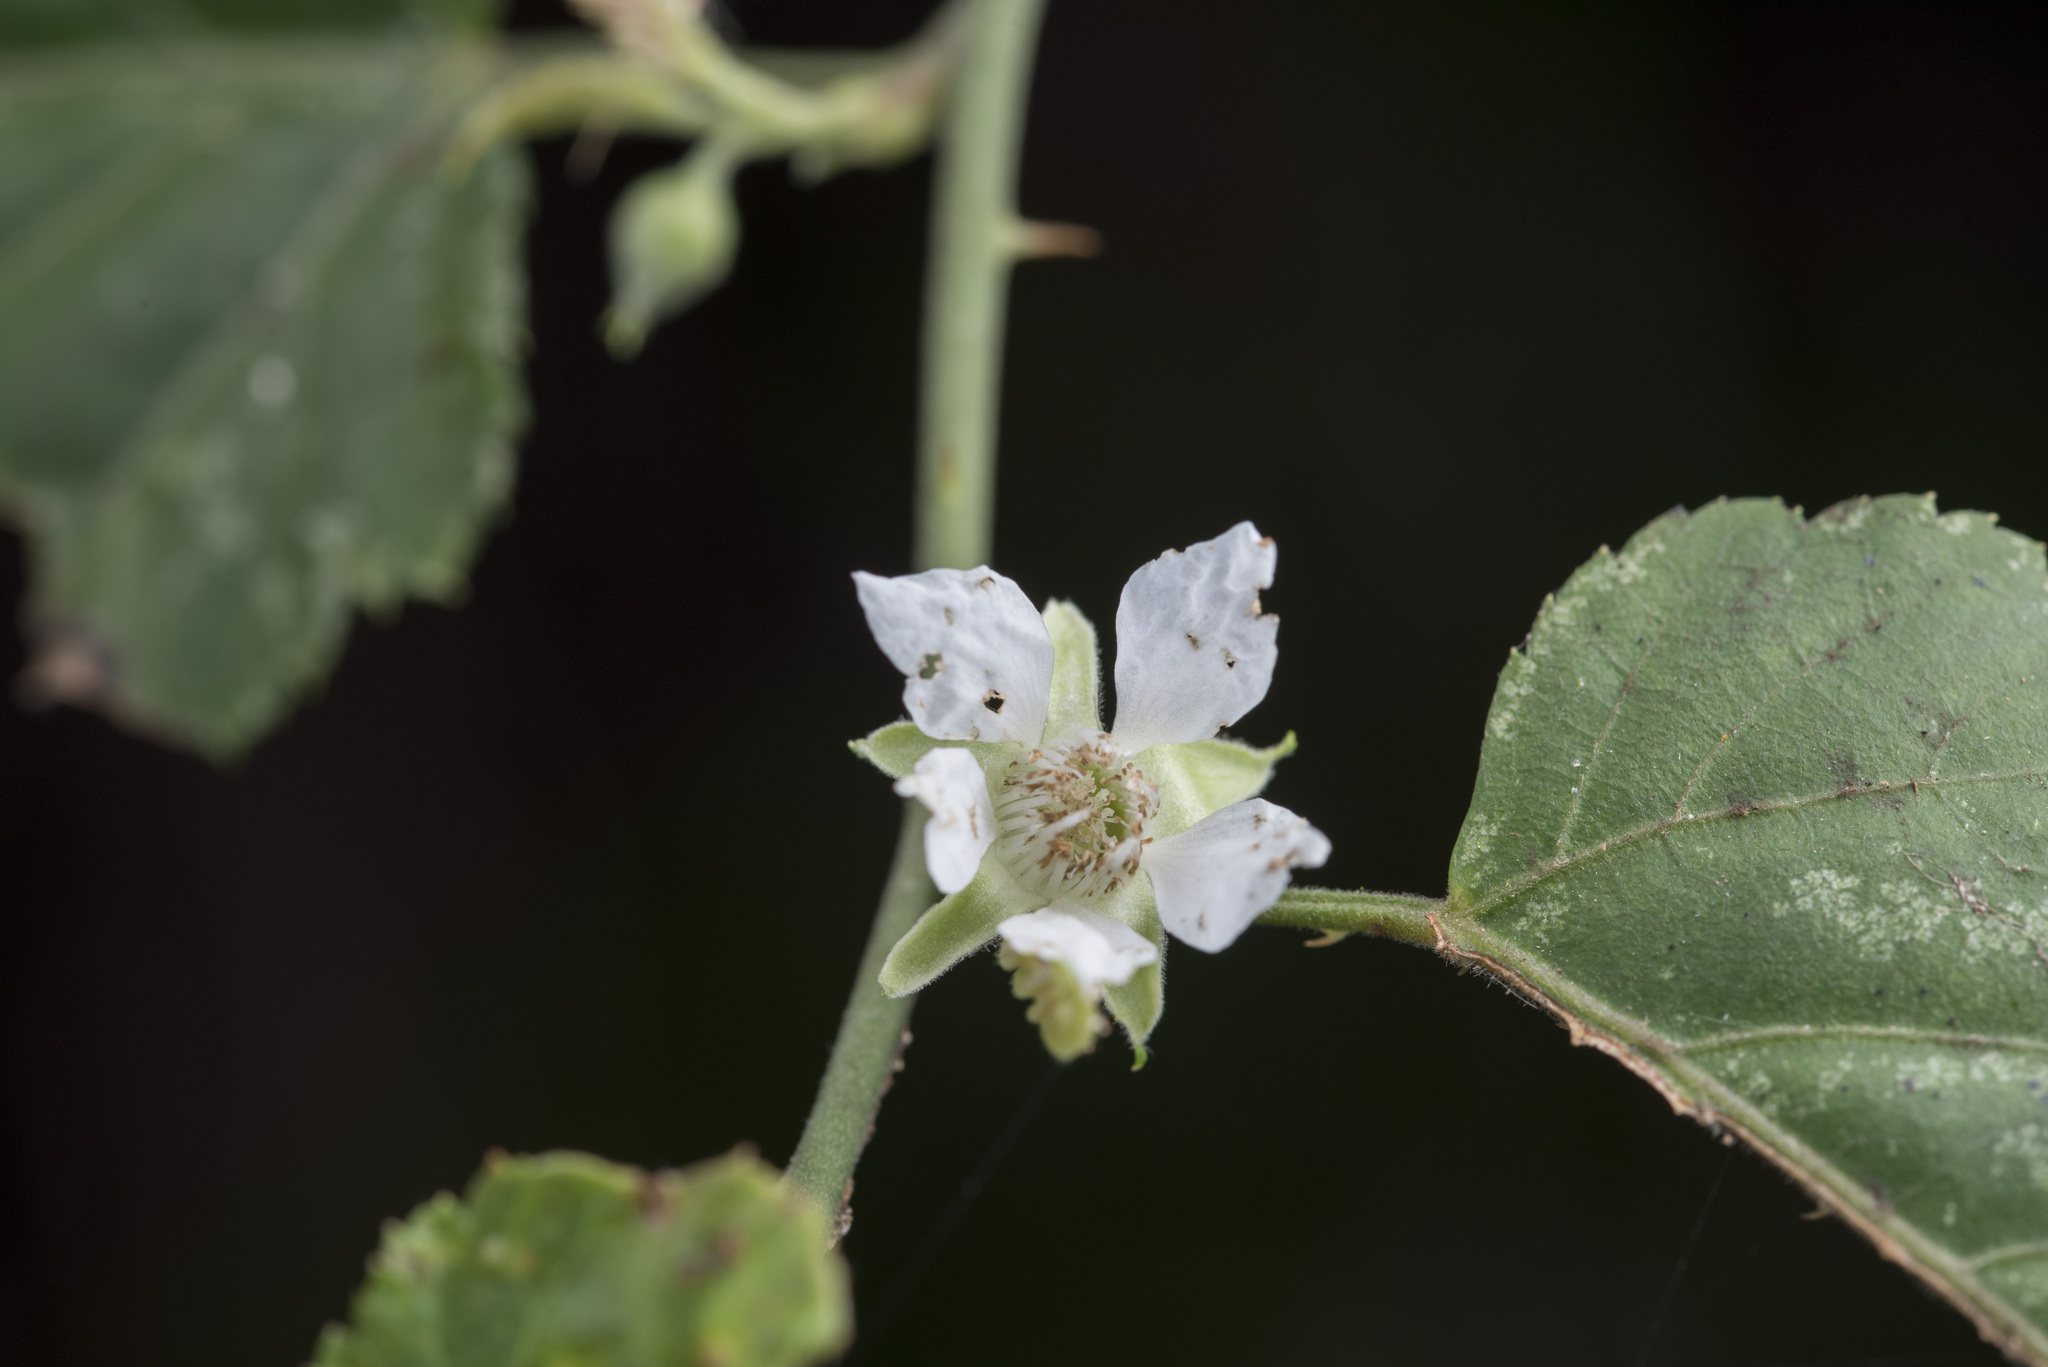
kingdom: Plantae
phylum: Tracheophyta
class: Magnoliopsida
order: Rosales
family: Rosaceae
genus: Rubus
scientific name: Rubus corchorifolius
